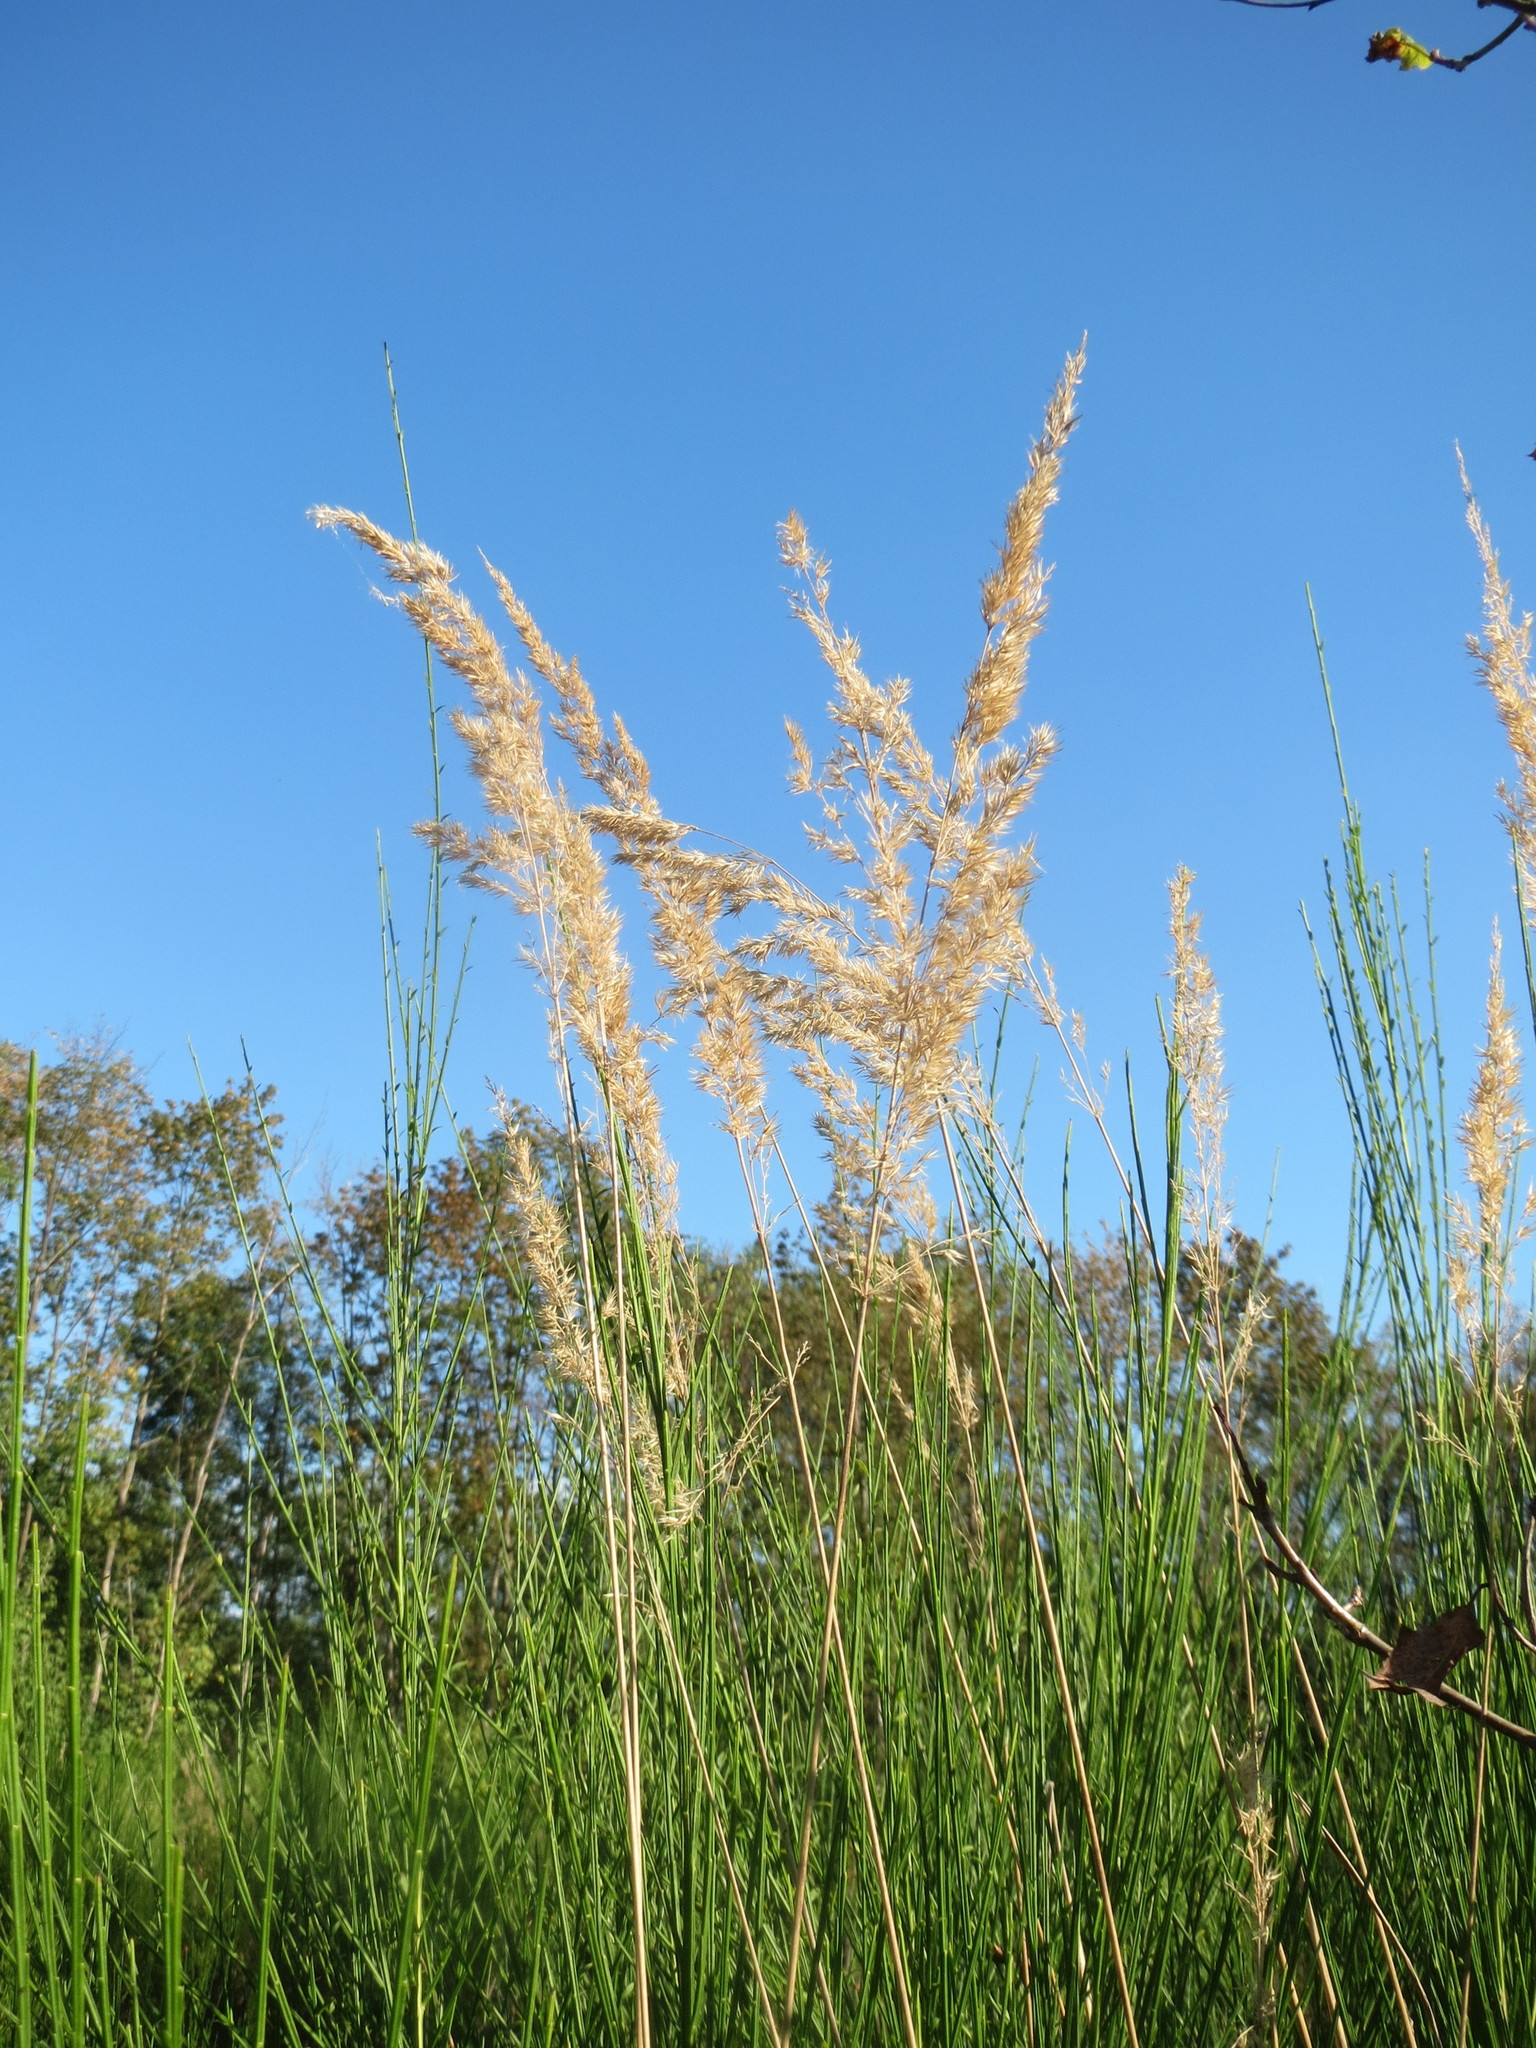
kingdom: Plantae
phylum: Tracheophyta
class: Liliopsida
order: Poales
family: Poaceae
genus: Calamagrostis
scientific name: Calamagrostis epigejos
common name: Wood small-reed
